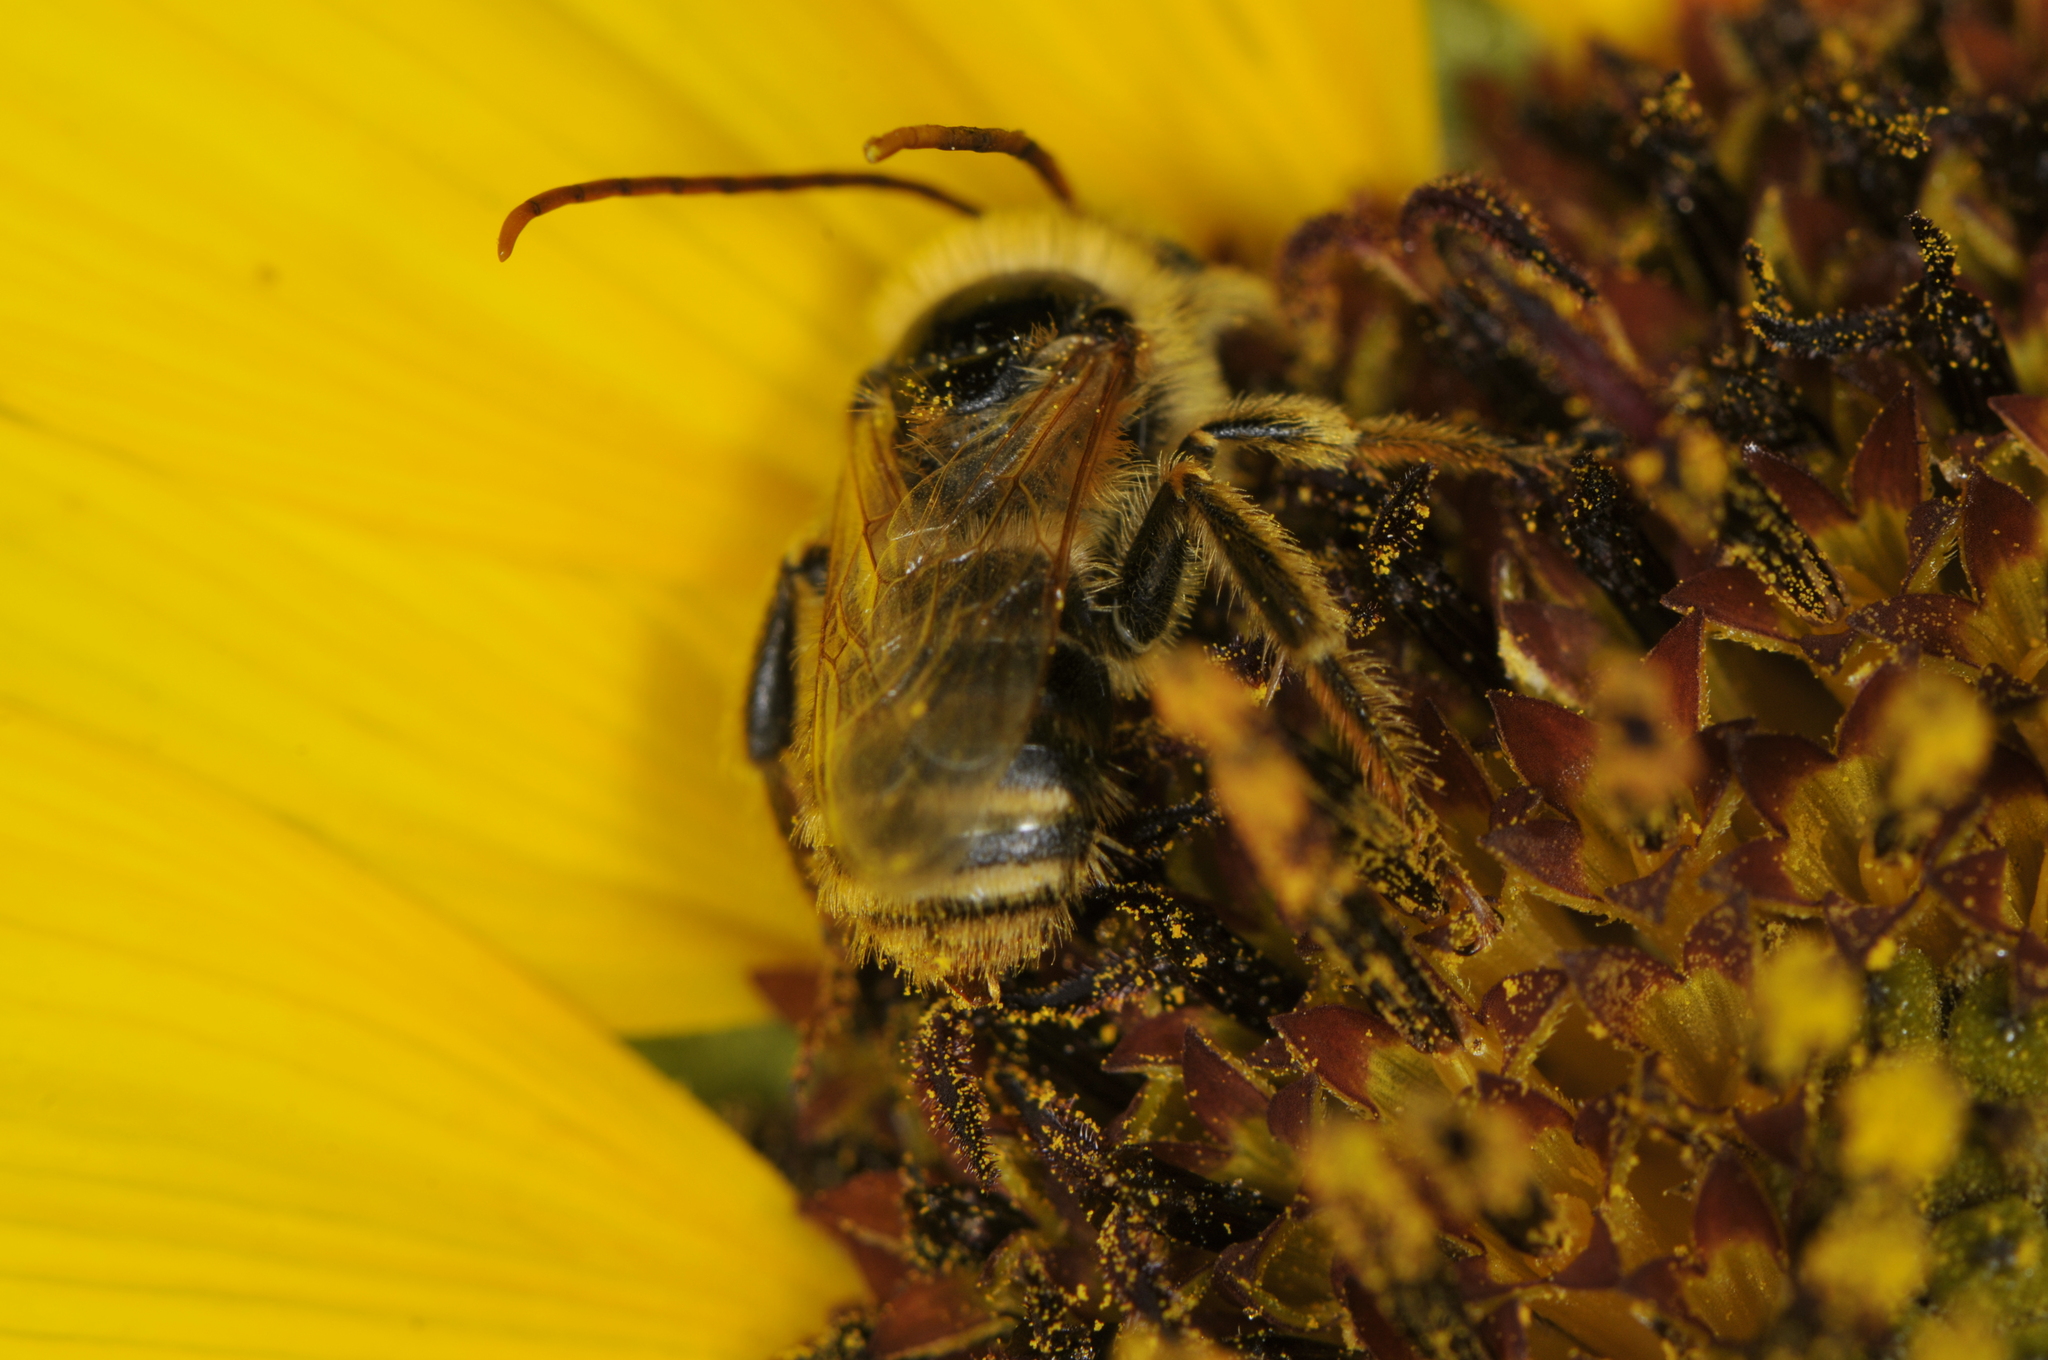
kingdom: Animalia
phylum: Arthropoda
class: Insecta
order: Hymenoptera
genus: Eumelissodes
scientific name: Eumelissodes
